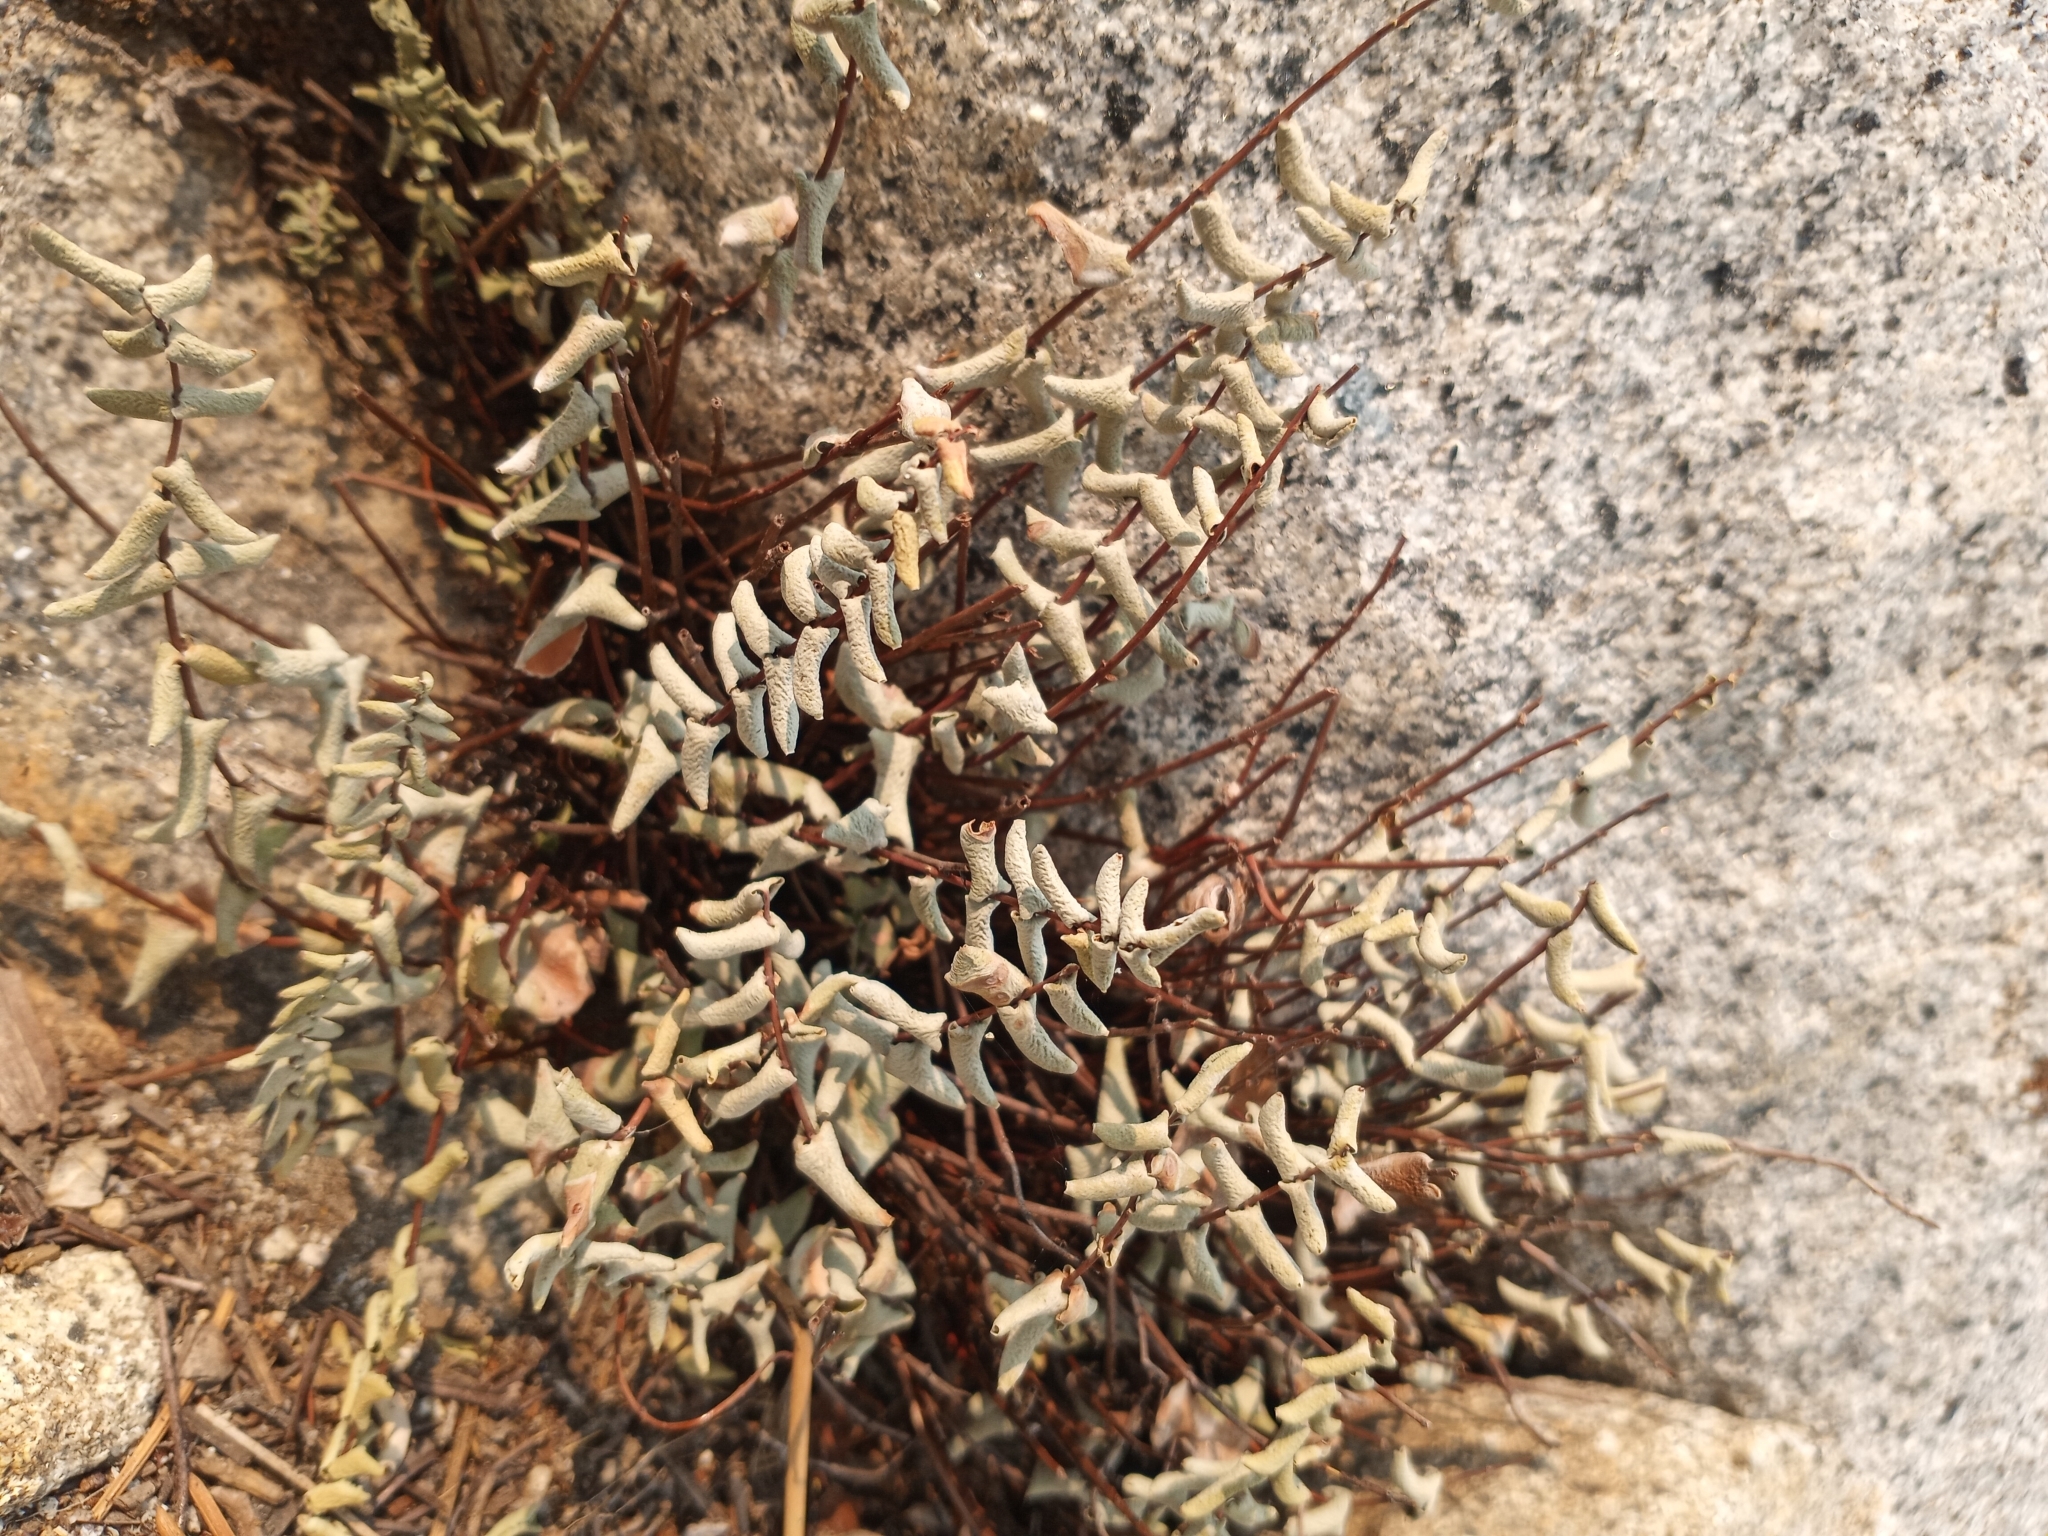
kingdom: Plantae
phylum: Tracheophyta
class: Polypodiopsida
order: Polypodiales
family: Pteridaceae
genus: Pellaea
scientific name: Pellaea bridgesii
